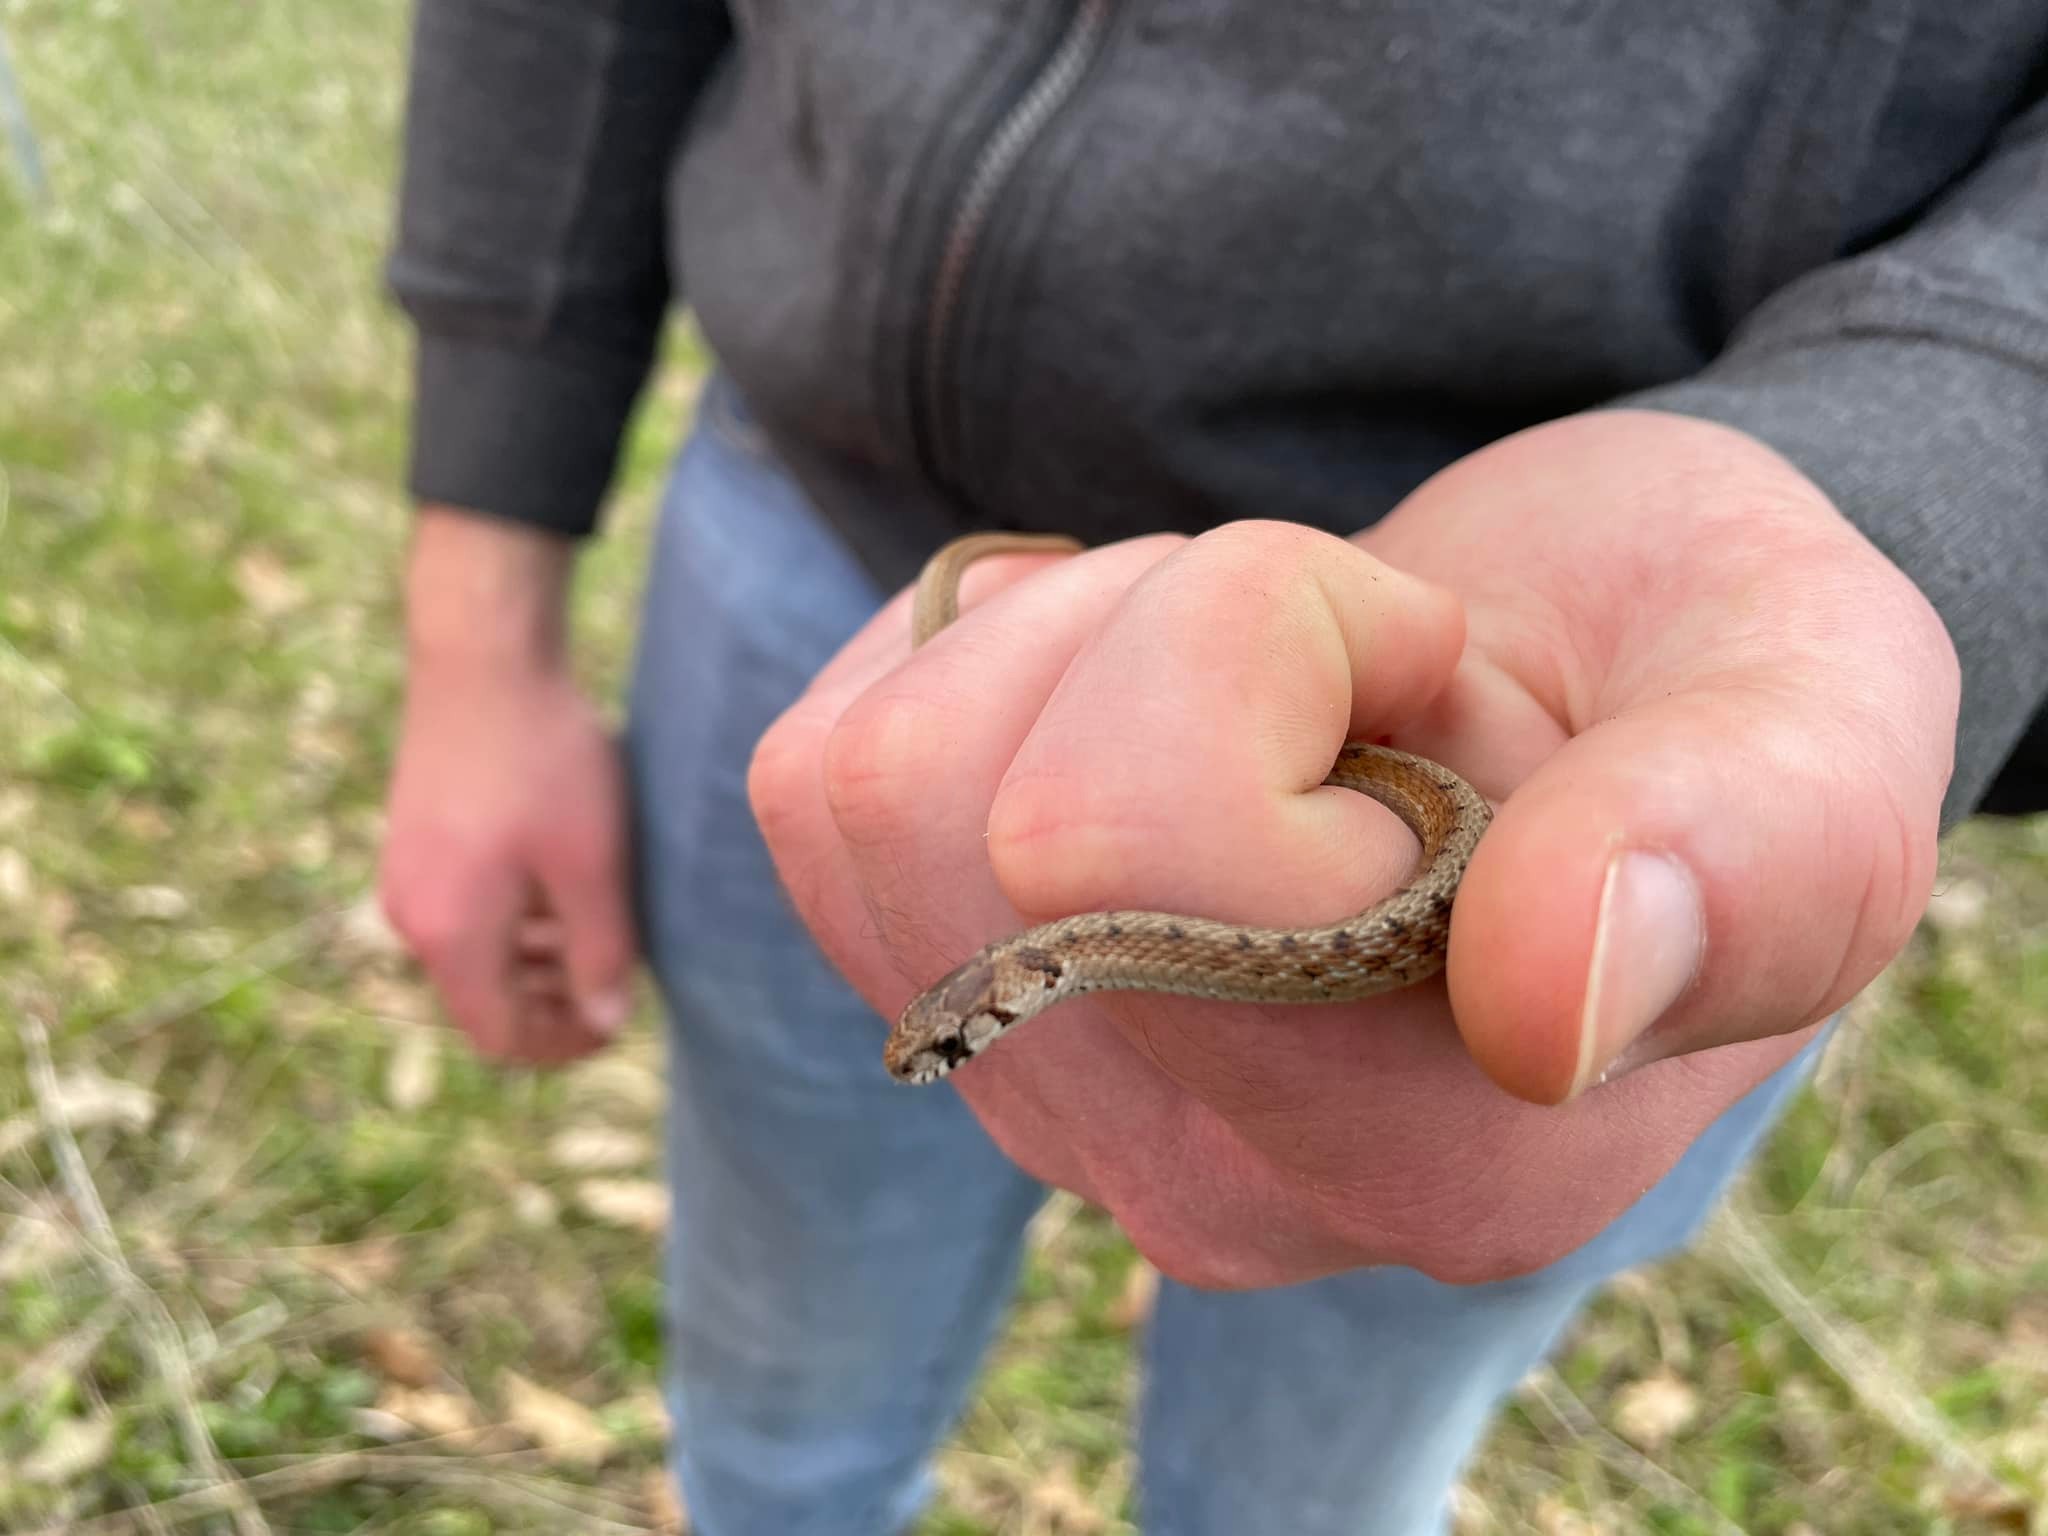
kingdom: Animalia
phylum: Chordata
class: Squamata
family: Colubridae
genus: Storeria
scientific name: Storeria dekayi
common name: (dekay’s) brown snake
